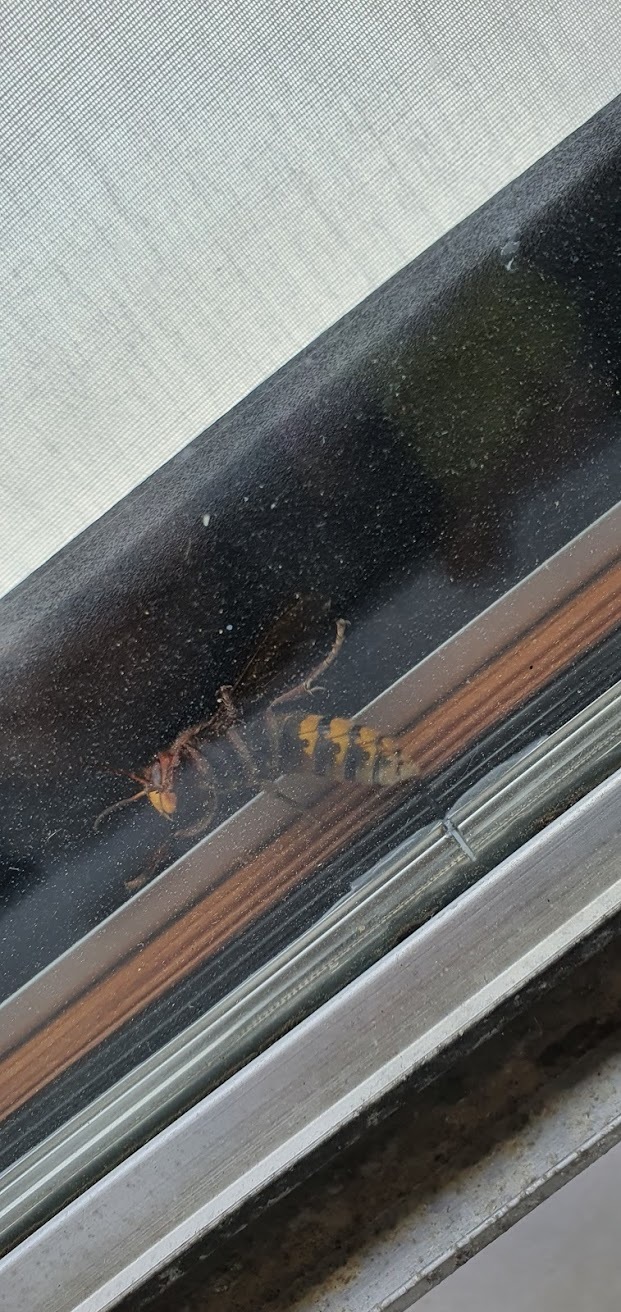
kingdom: Animalia
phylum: Arthropoda
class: Insecta
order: Hymenoptera
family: Vespidae
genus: Vespa
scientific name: Vespa crabro
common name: Hornet
